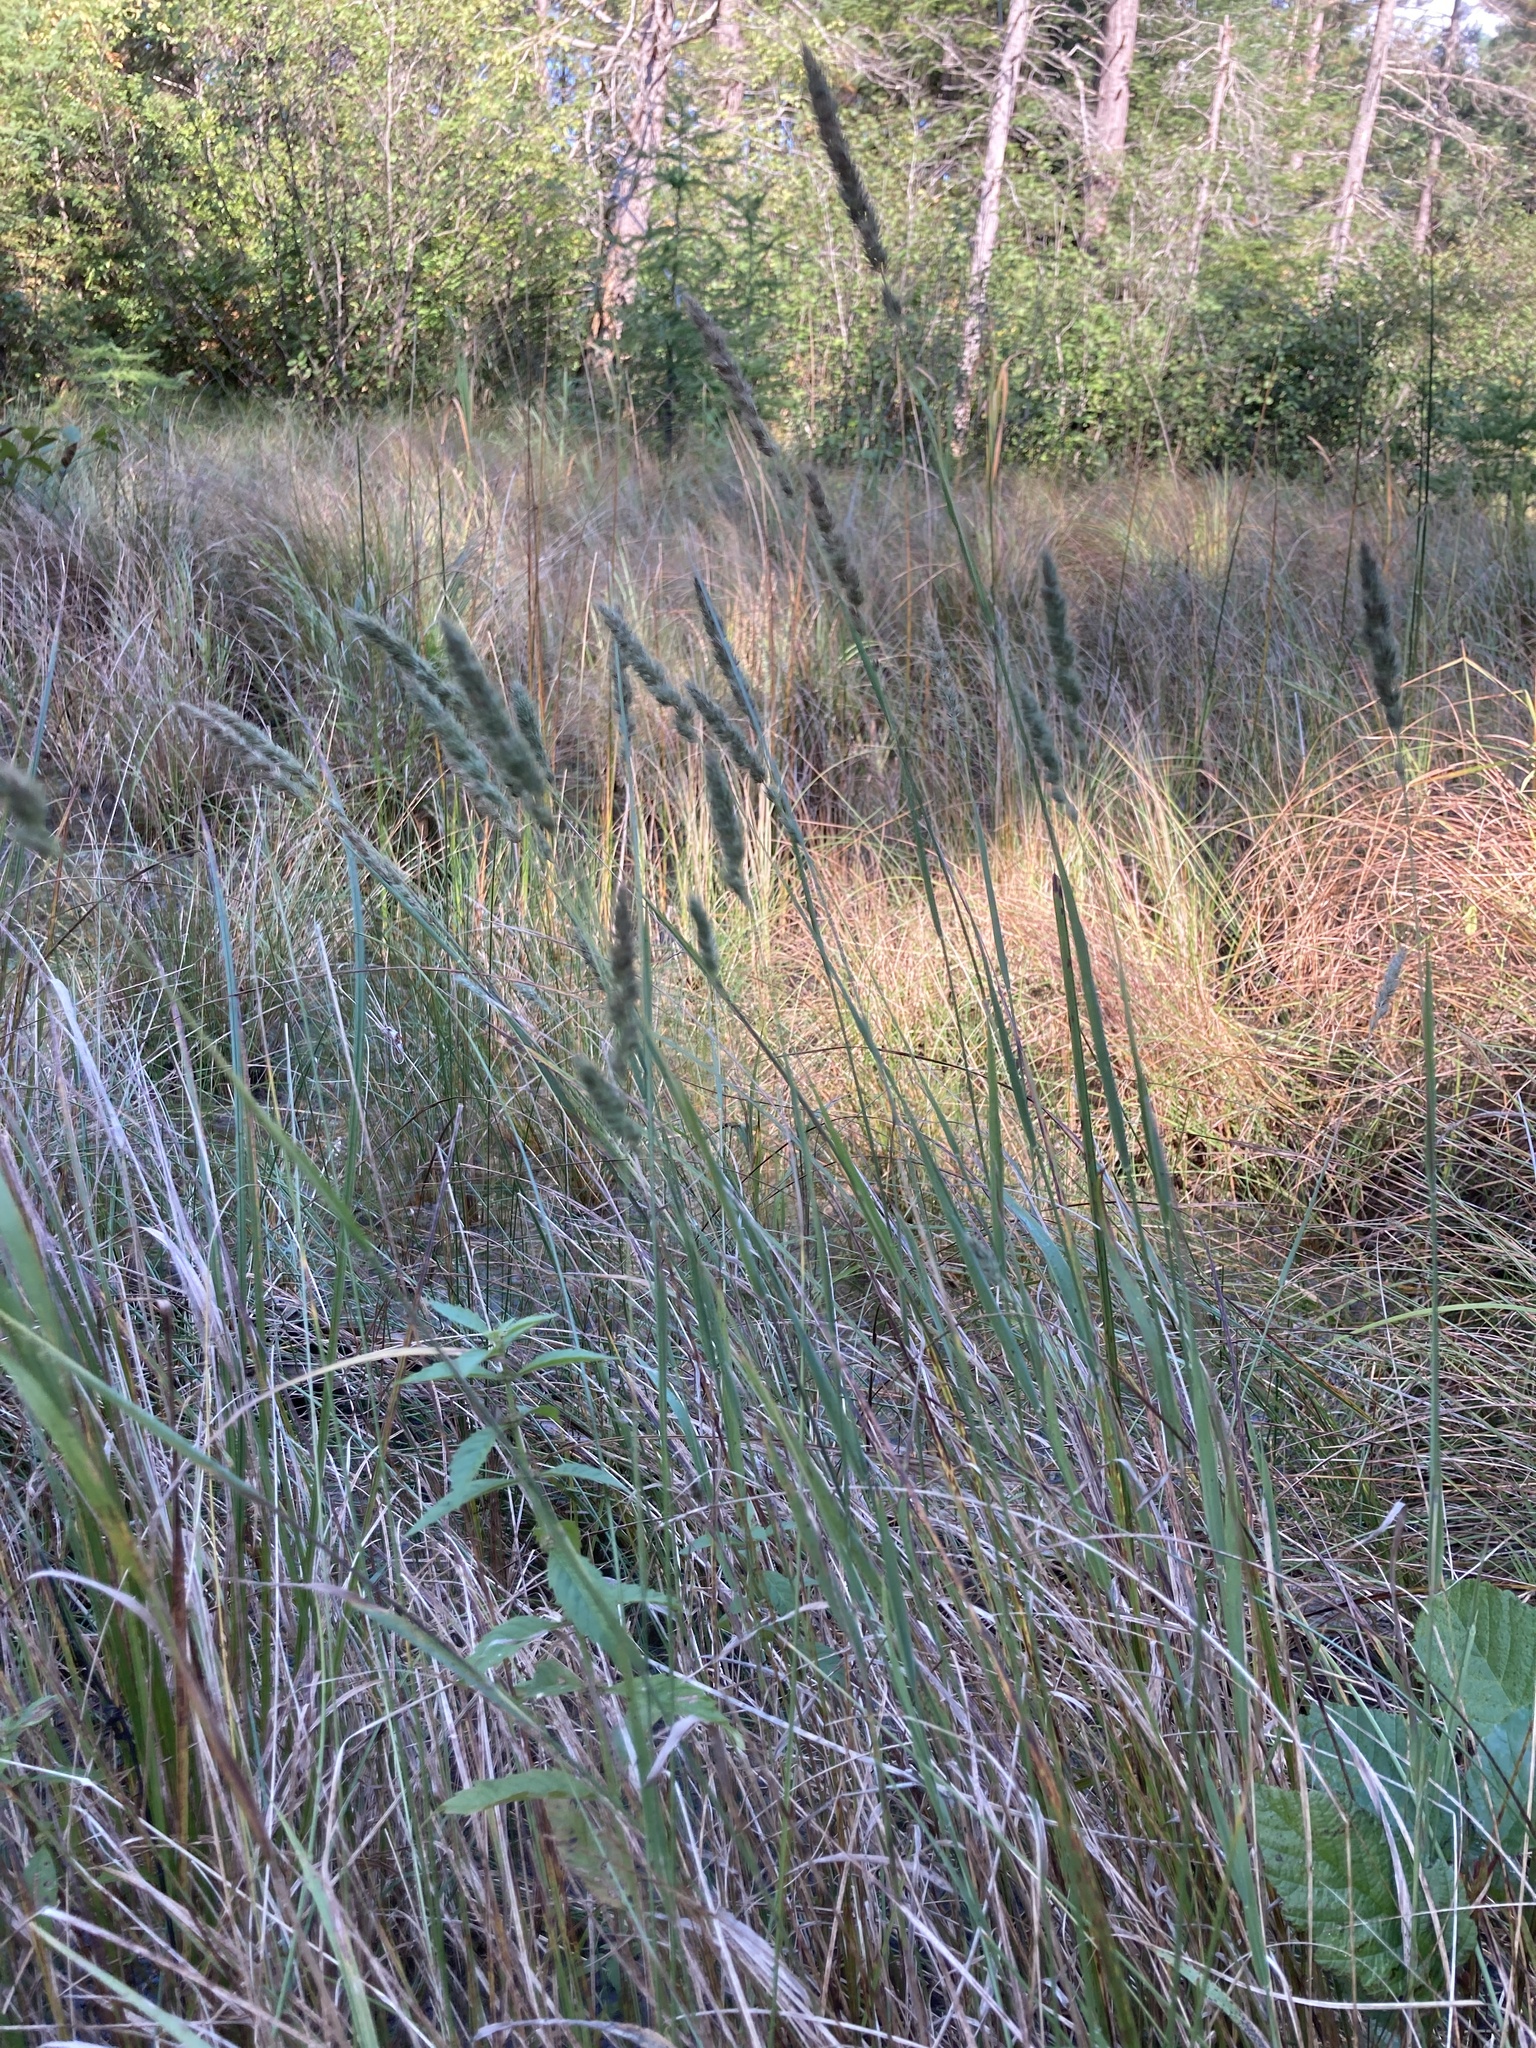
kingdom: Plantae
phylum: Tracheophyta
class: Liliopsida
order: Poales
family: Poaceae
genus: Muhlenbergia
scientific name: Muhlenbergia glomerata
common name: Bog muhly
